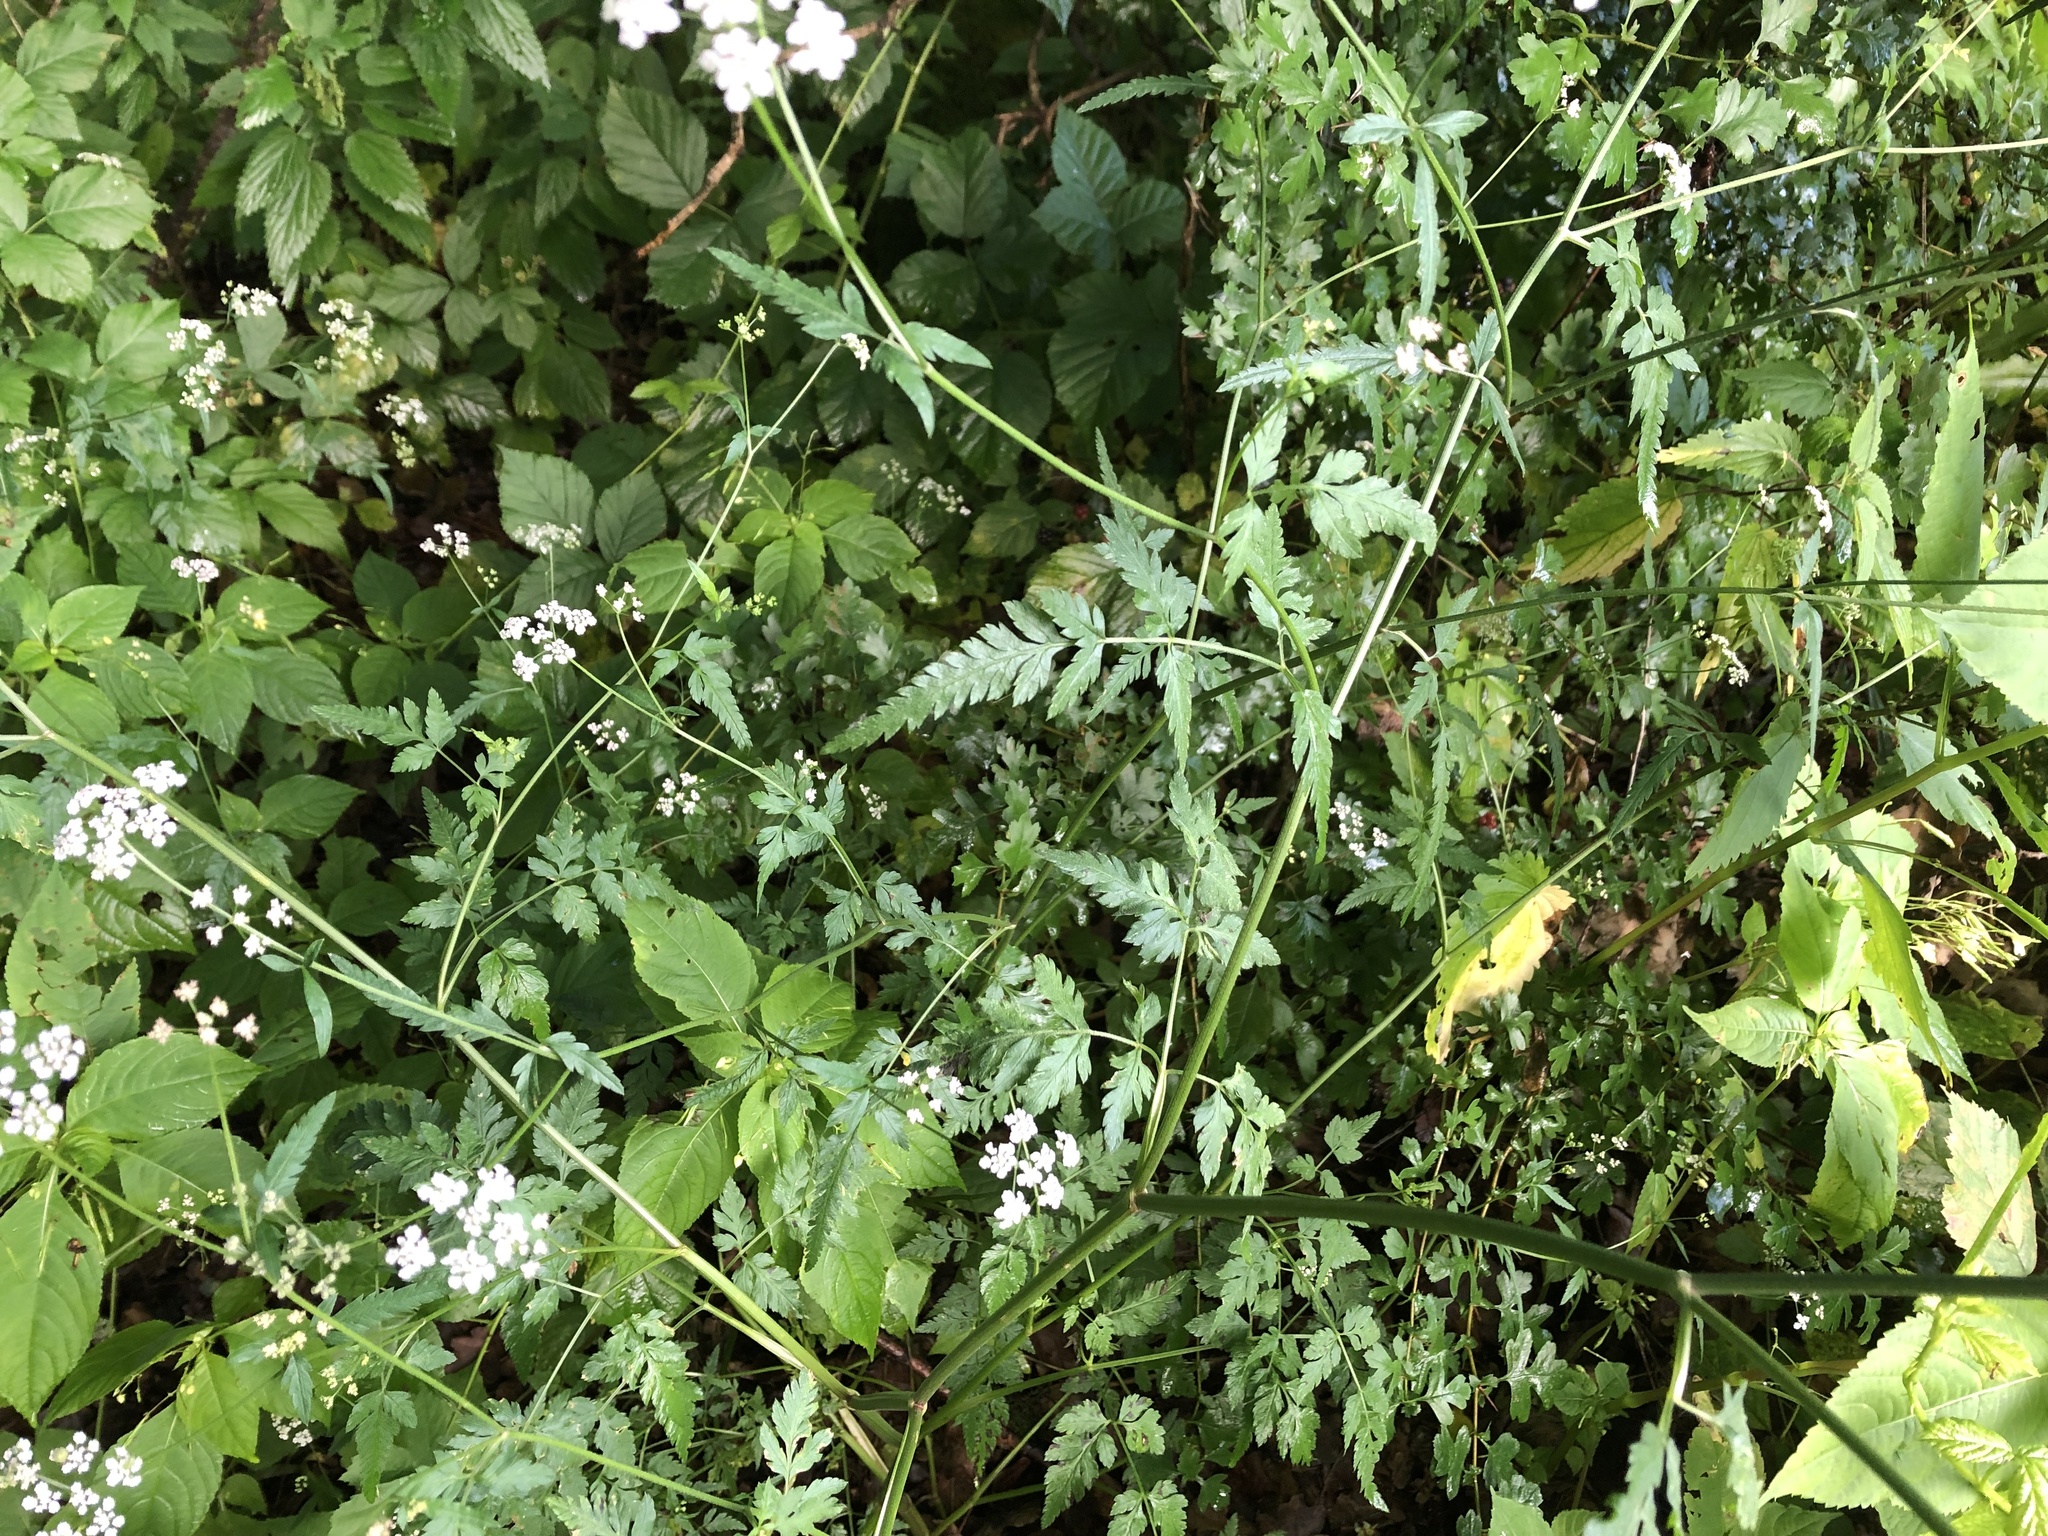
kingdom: Plantae
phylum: Tracheophyta
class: Magnoliopsida
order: Apiales
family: Apiaceae
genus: Torilis
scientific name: Torilis japonica
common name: Upright hedge-parsley
